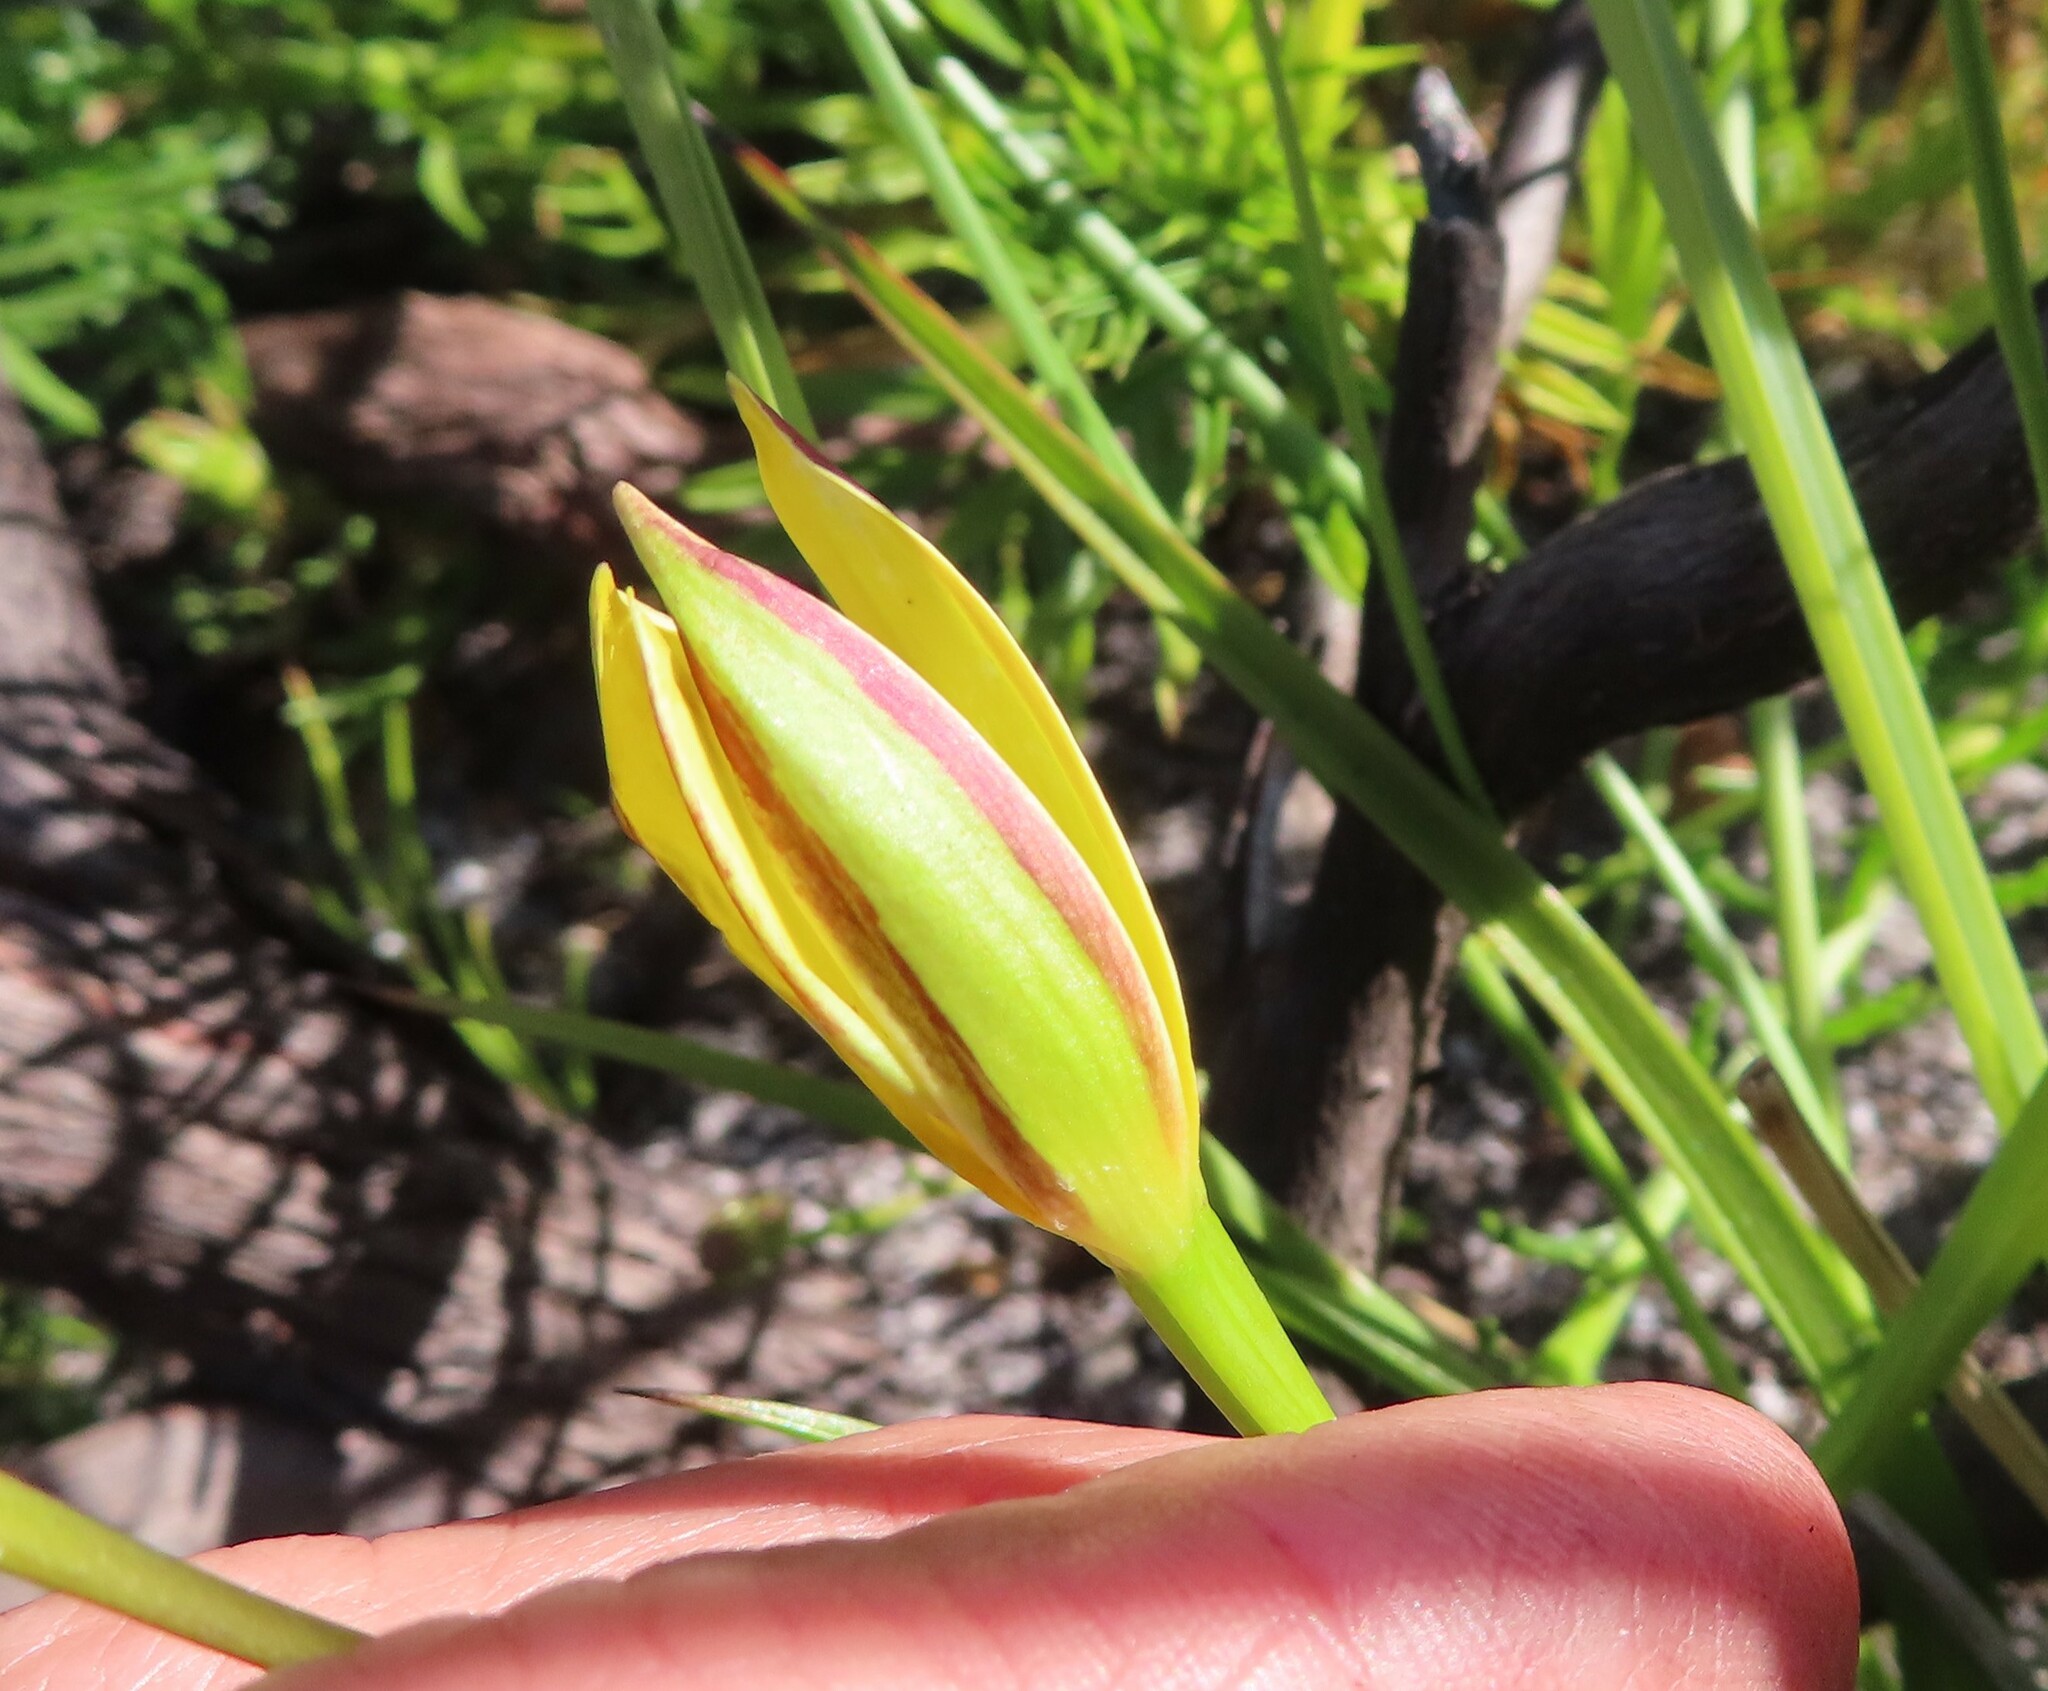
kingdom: Plantae
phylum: Tracheophyta
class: Liliopsida
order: Asparagales
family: Hypoxidaceae
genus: Pauridia
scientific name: Pauridia capensis
